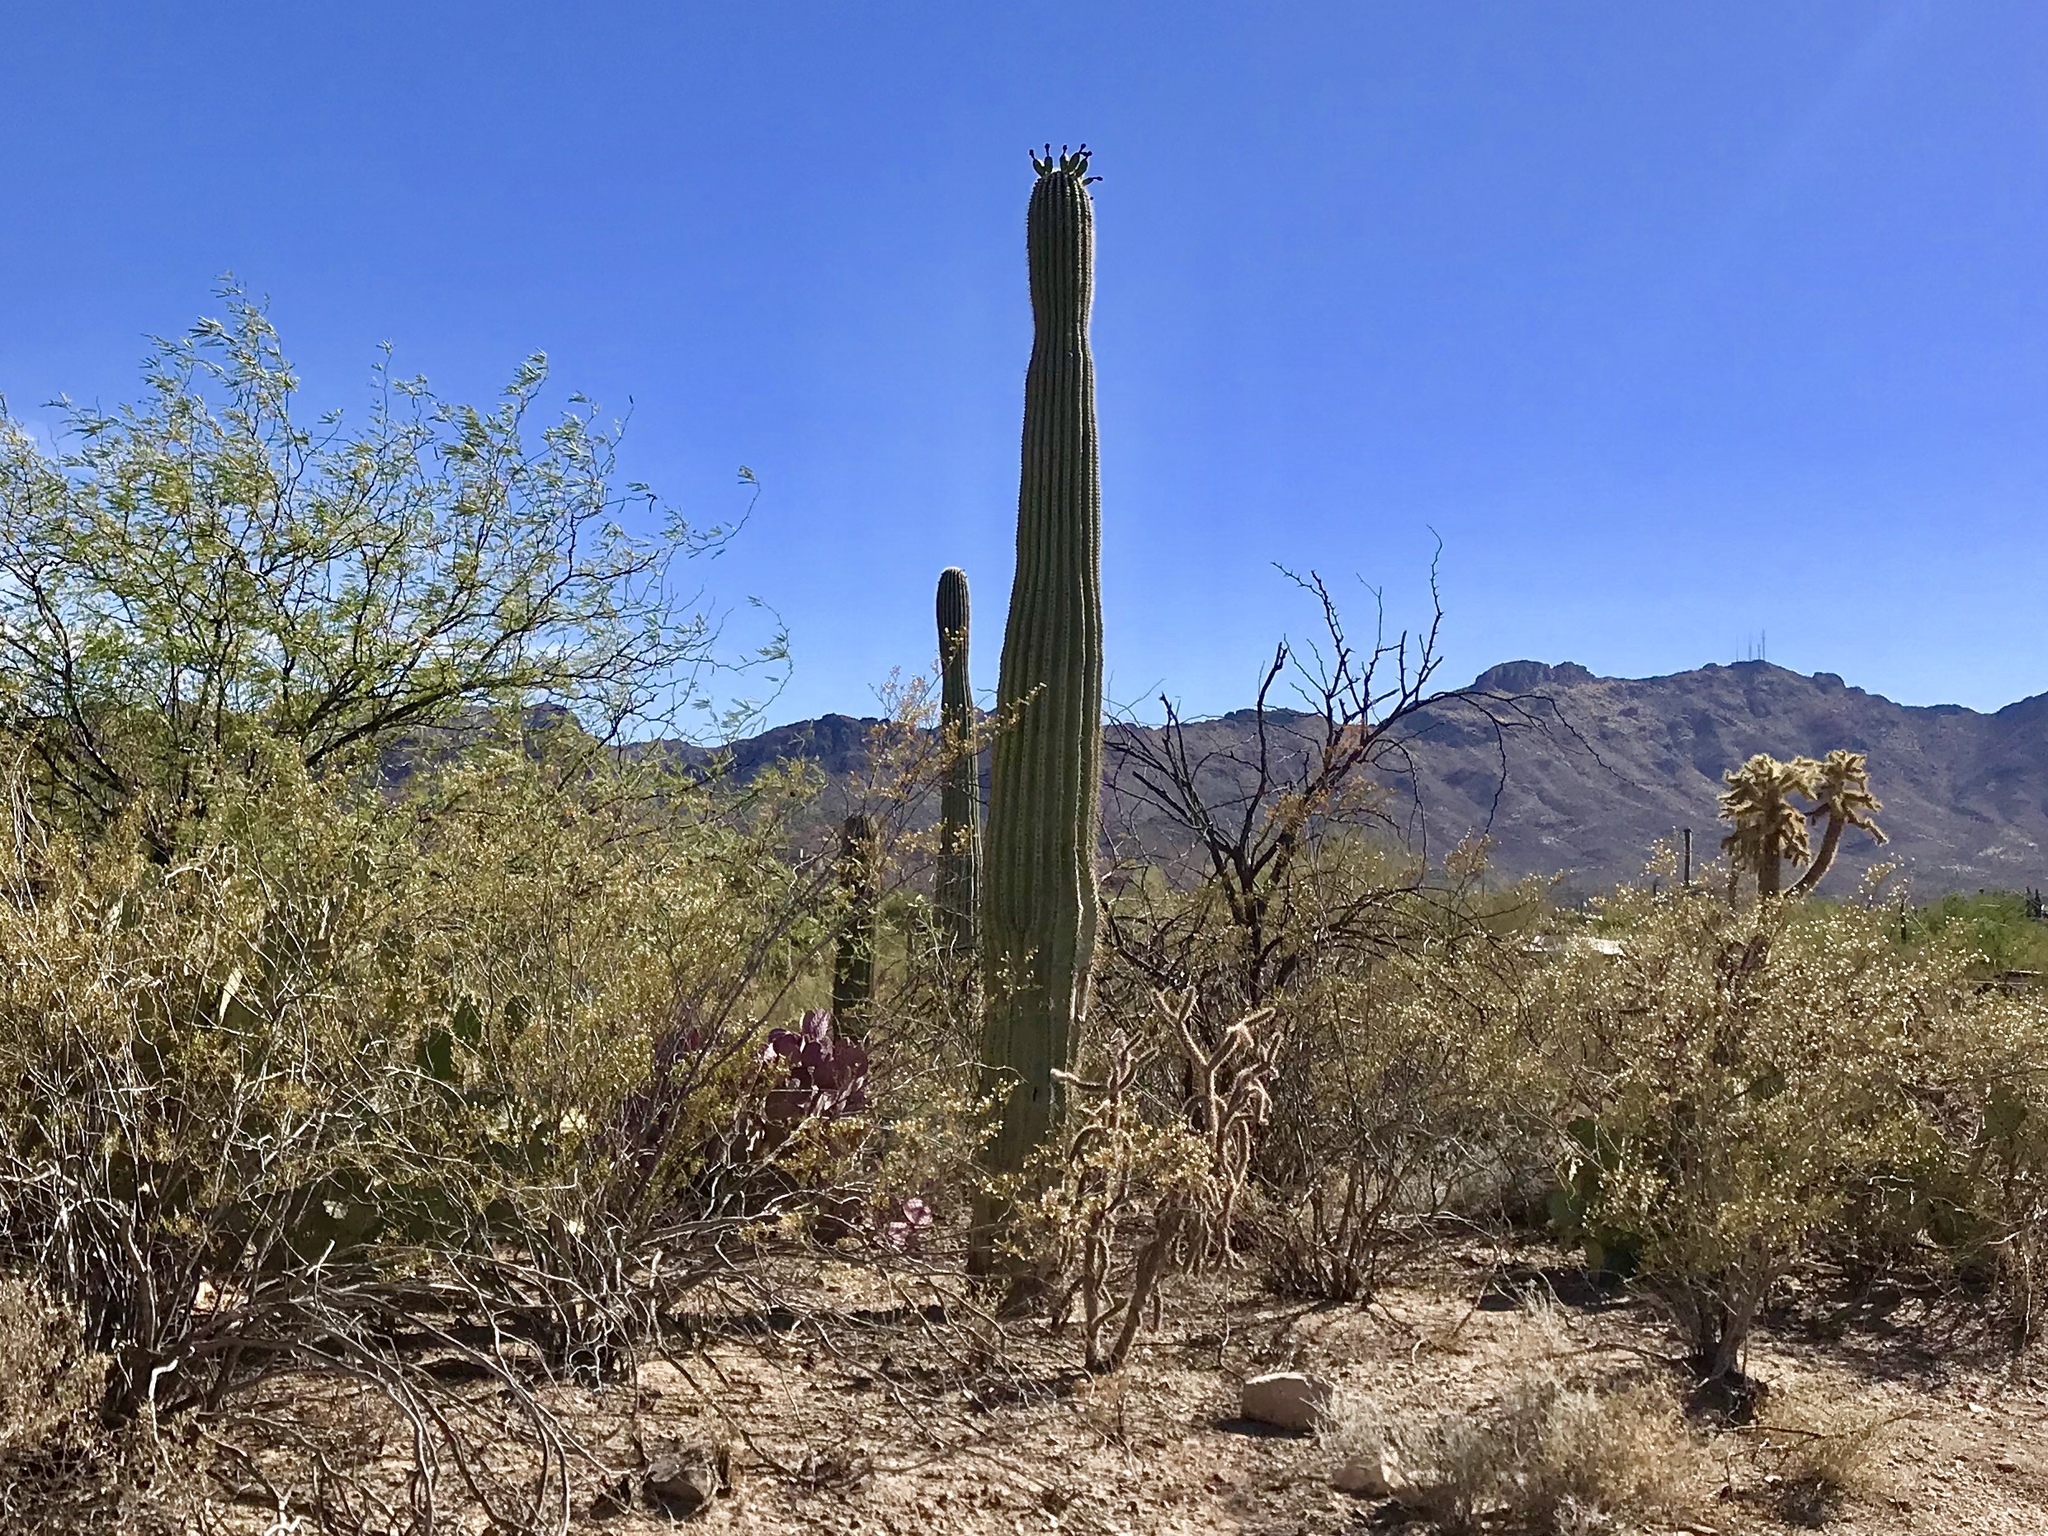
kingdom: Plantae
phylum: Tracheophyta
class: Magnoliopsida
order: Caryophyllales
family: Cactaceae
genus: Carnegiea
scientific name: Carnegiea gigantea
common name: Saguaro
